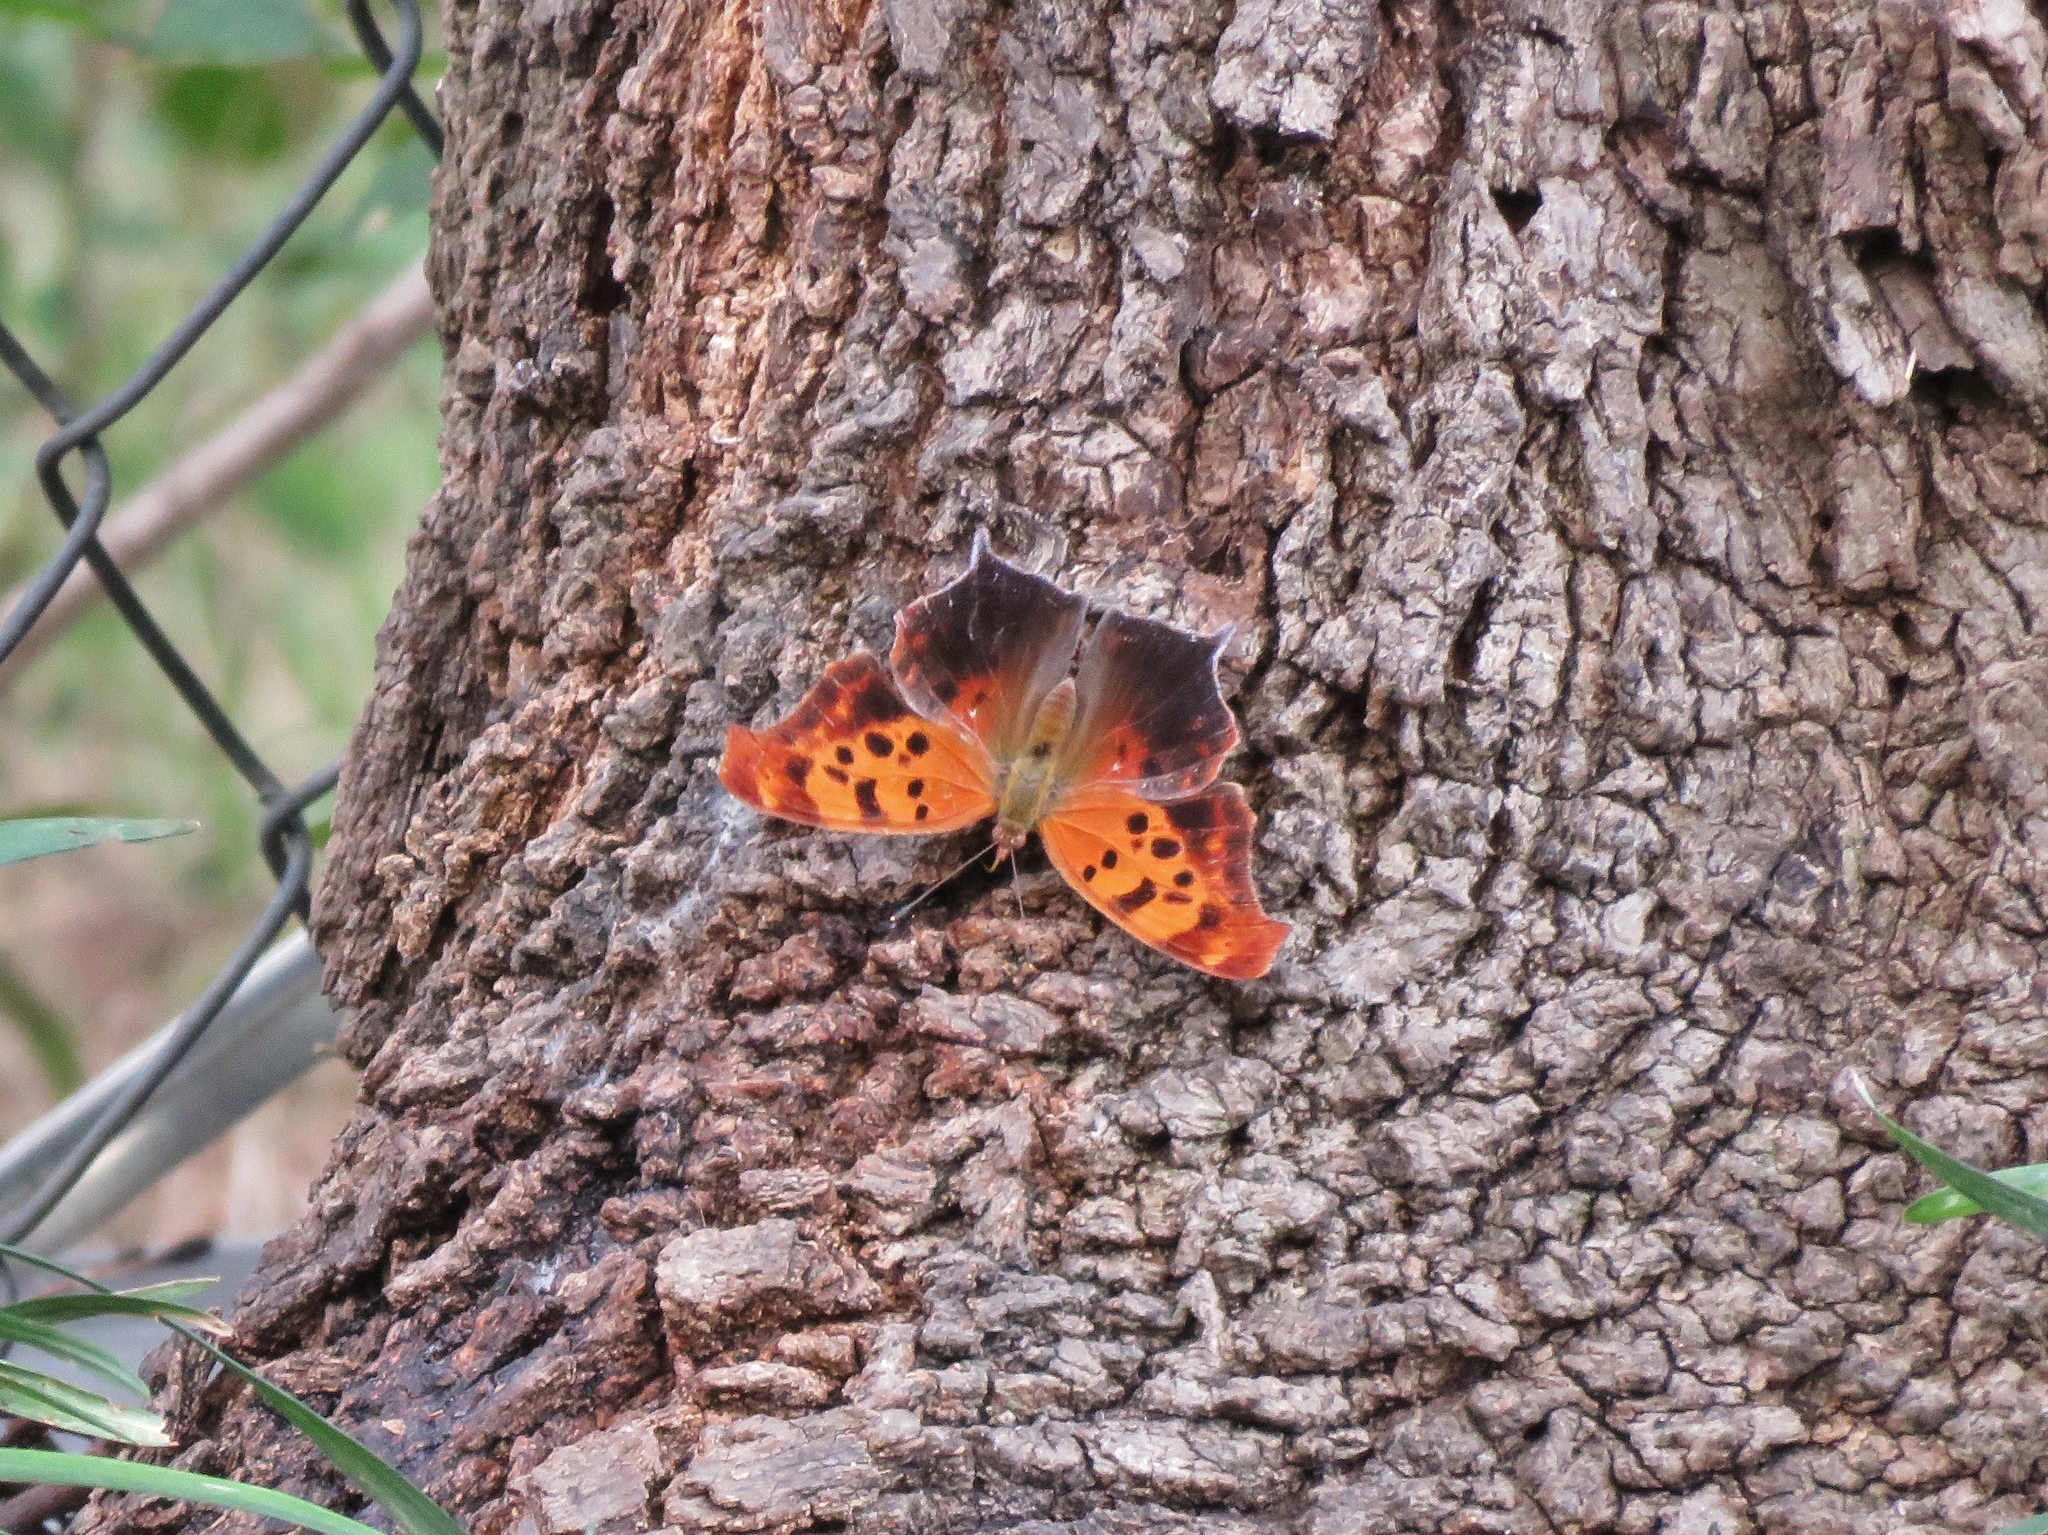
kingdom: Animalia
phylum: Arthropoda
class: Insecta
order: Lepidoptera
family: Nymphalidae
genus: Polygonia
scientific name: Polygonia interrogationis
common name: Question mark
